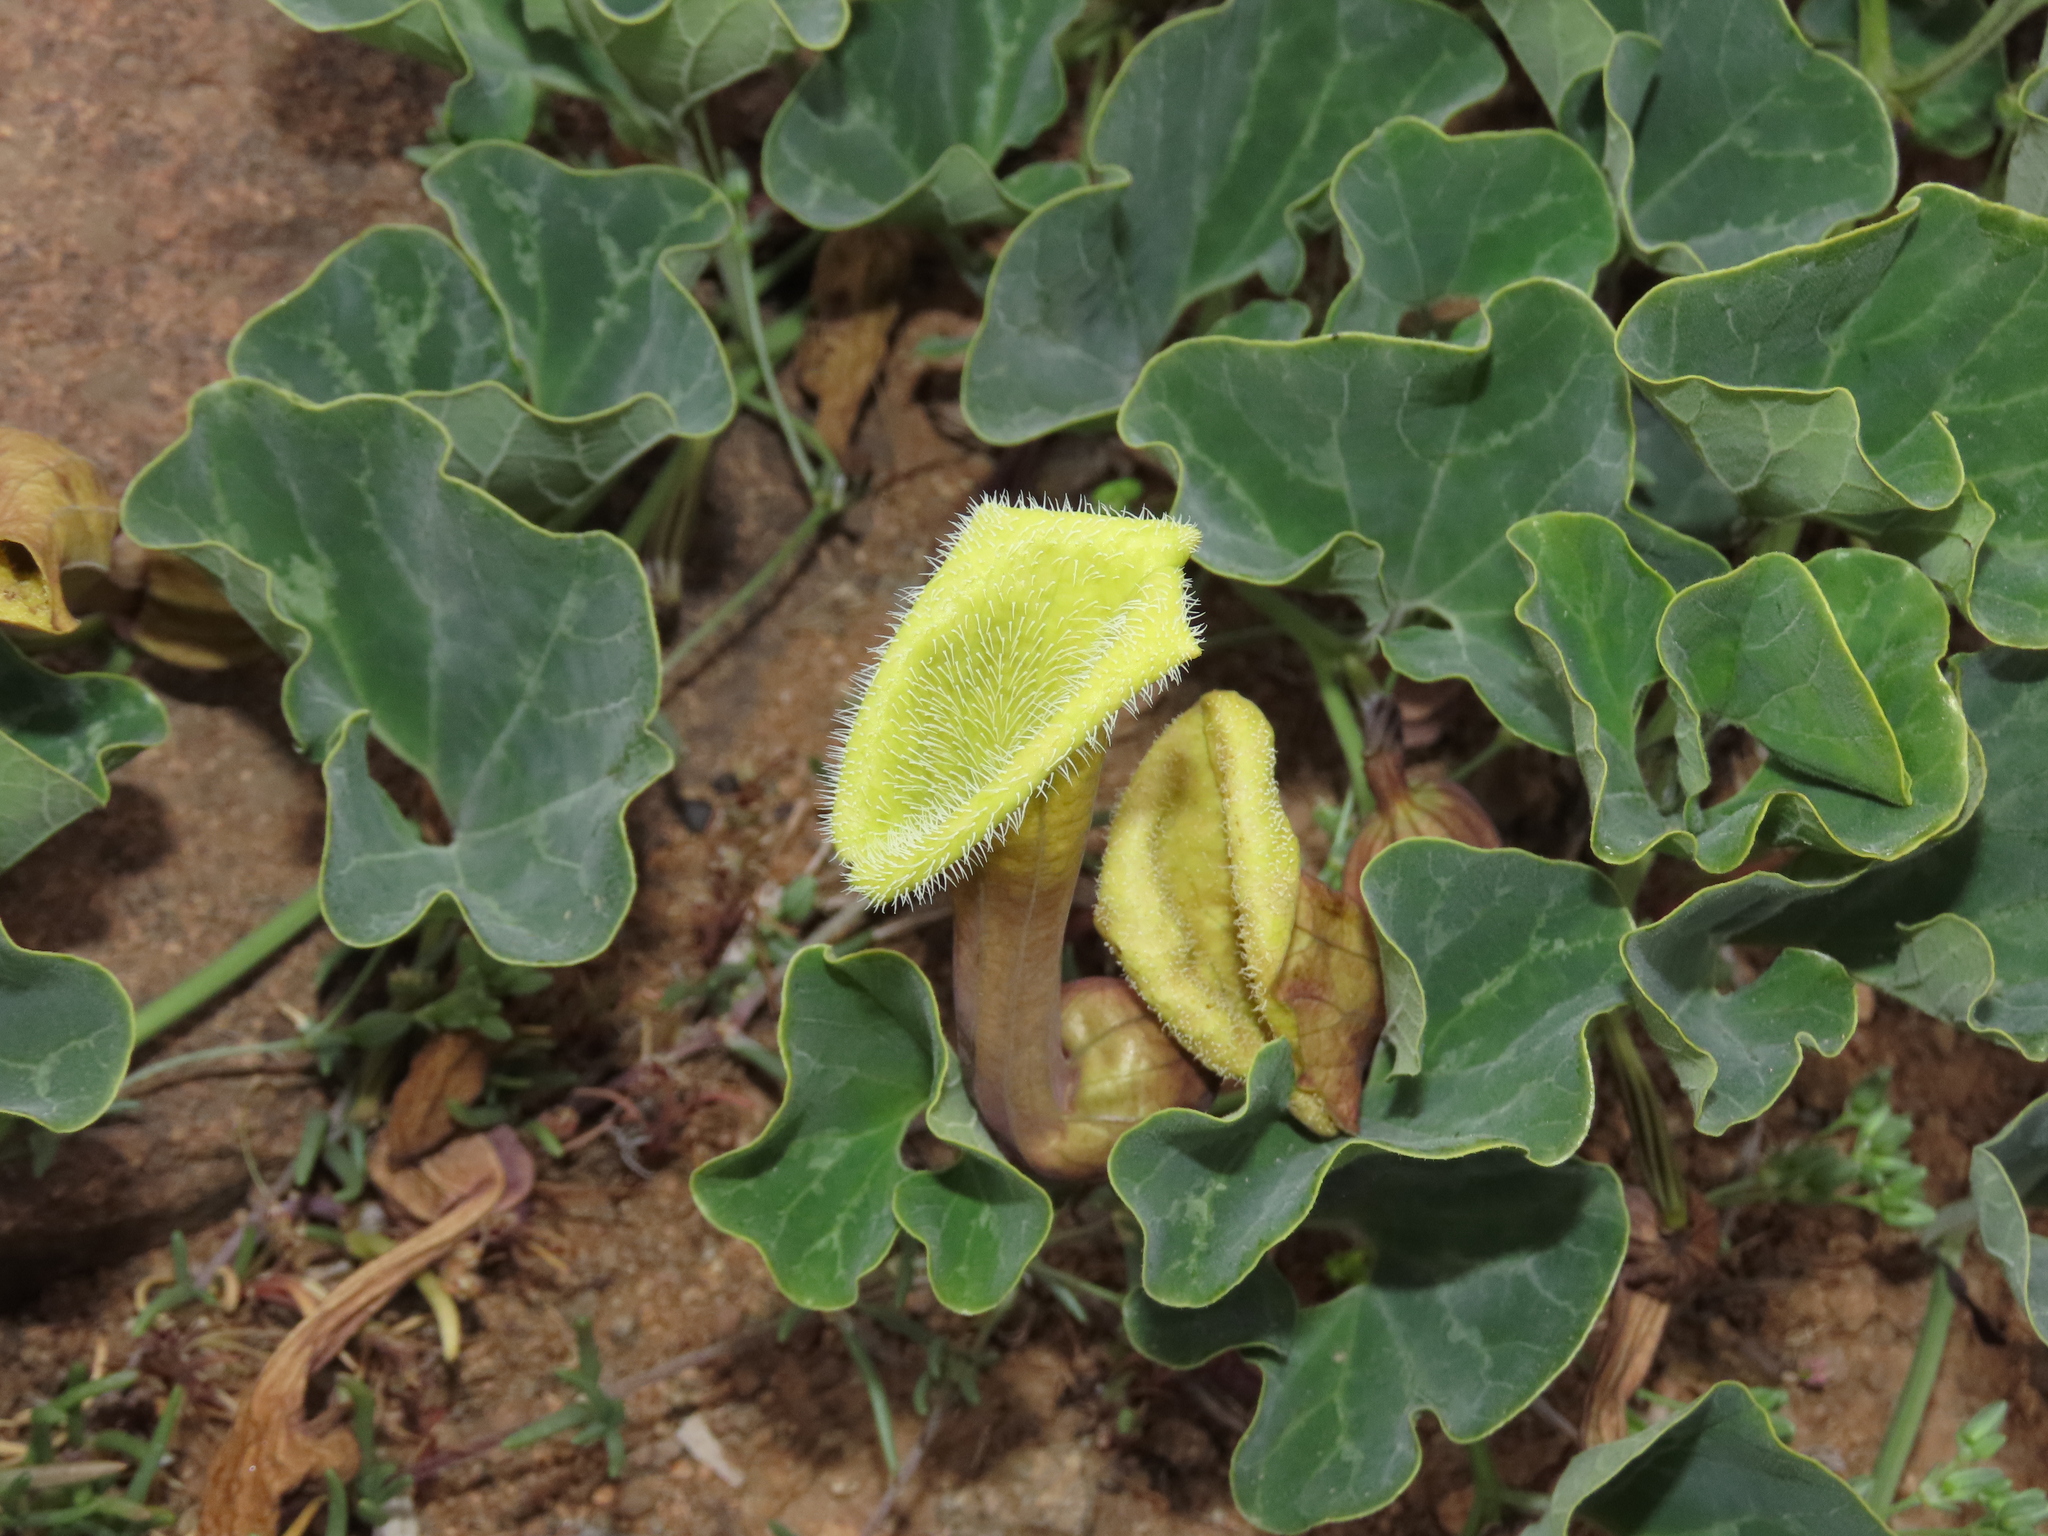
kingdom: Plantae
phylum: Tracheophyta
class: Magnoliopsida
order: Piperales
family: Aristolochiaceae
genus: Aristolochia
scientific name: Aristolochia
